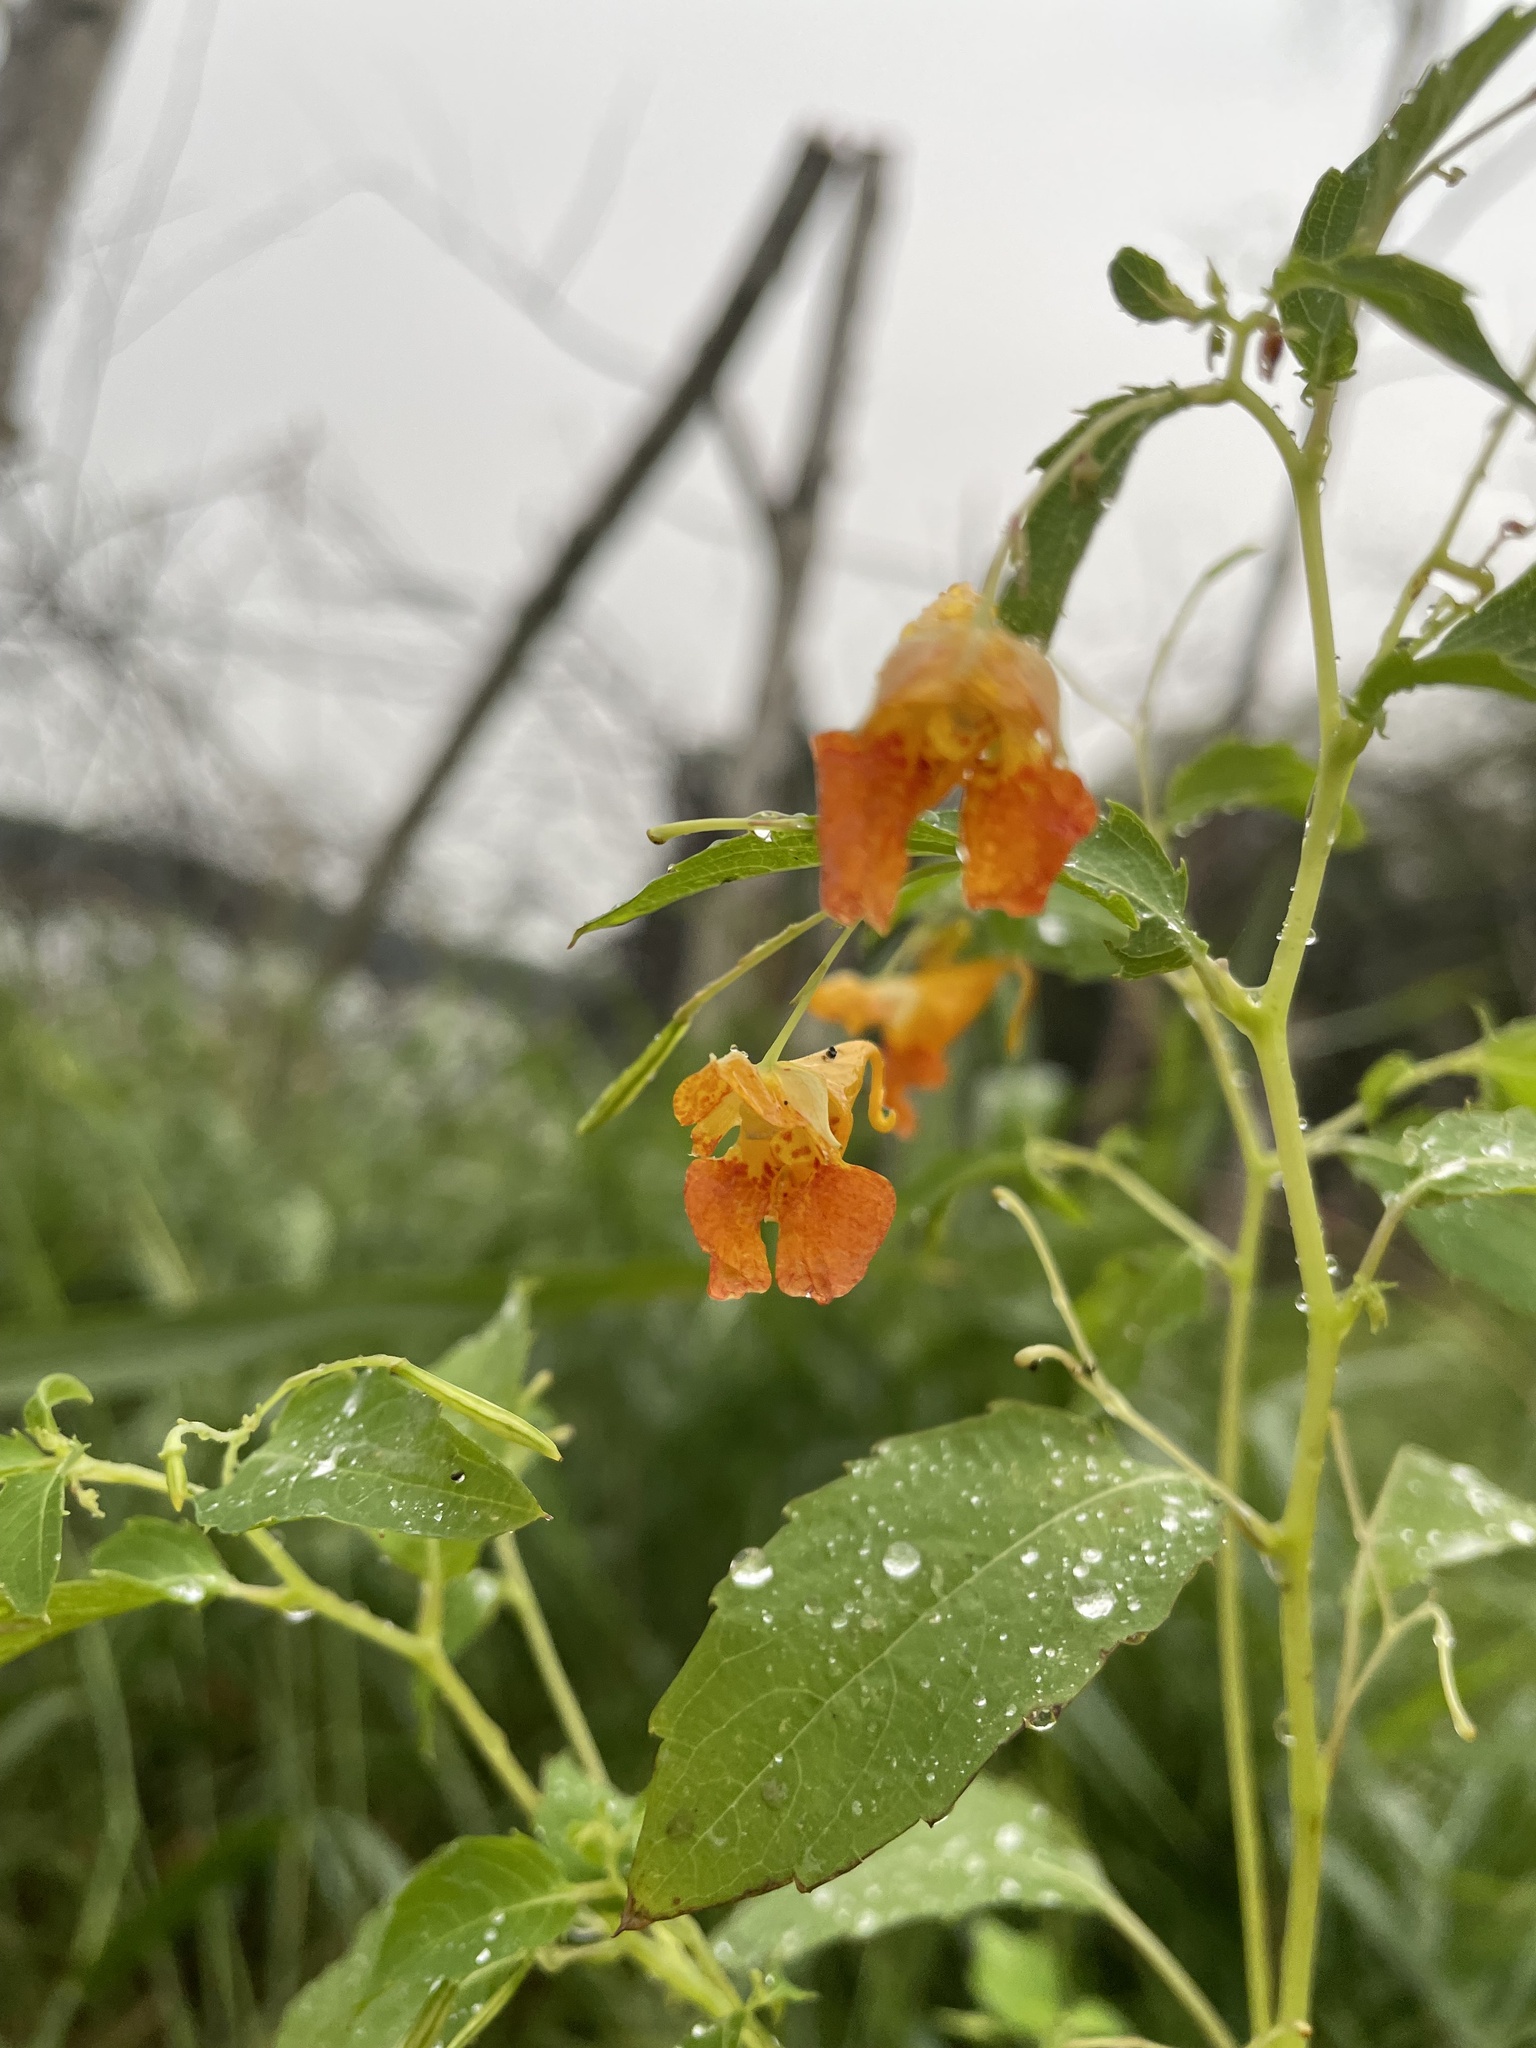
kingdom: Plantae
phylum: Tracheophyta
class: Magnoliopsida
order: Ericales
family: Balsaminaceae
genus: Impatiens
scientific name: Impatiens capensis
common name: Orange balsam
